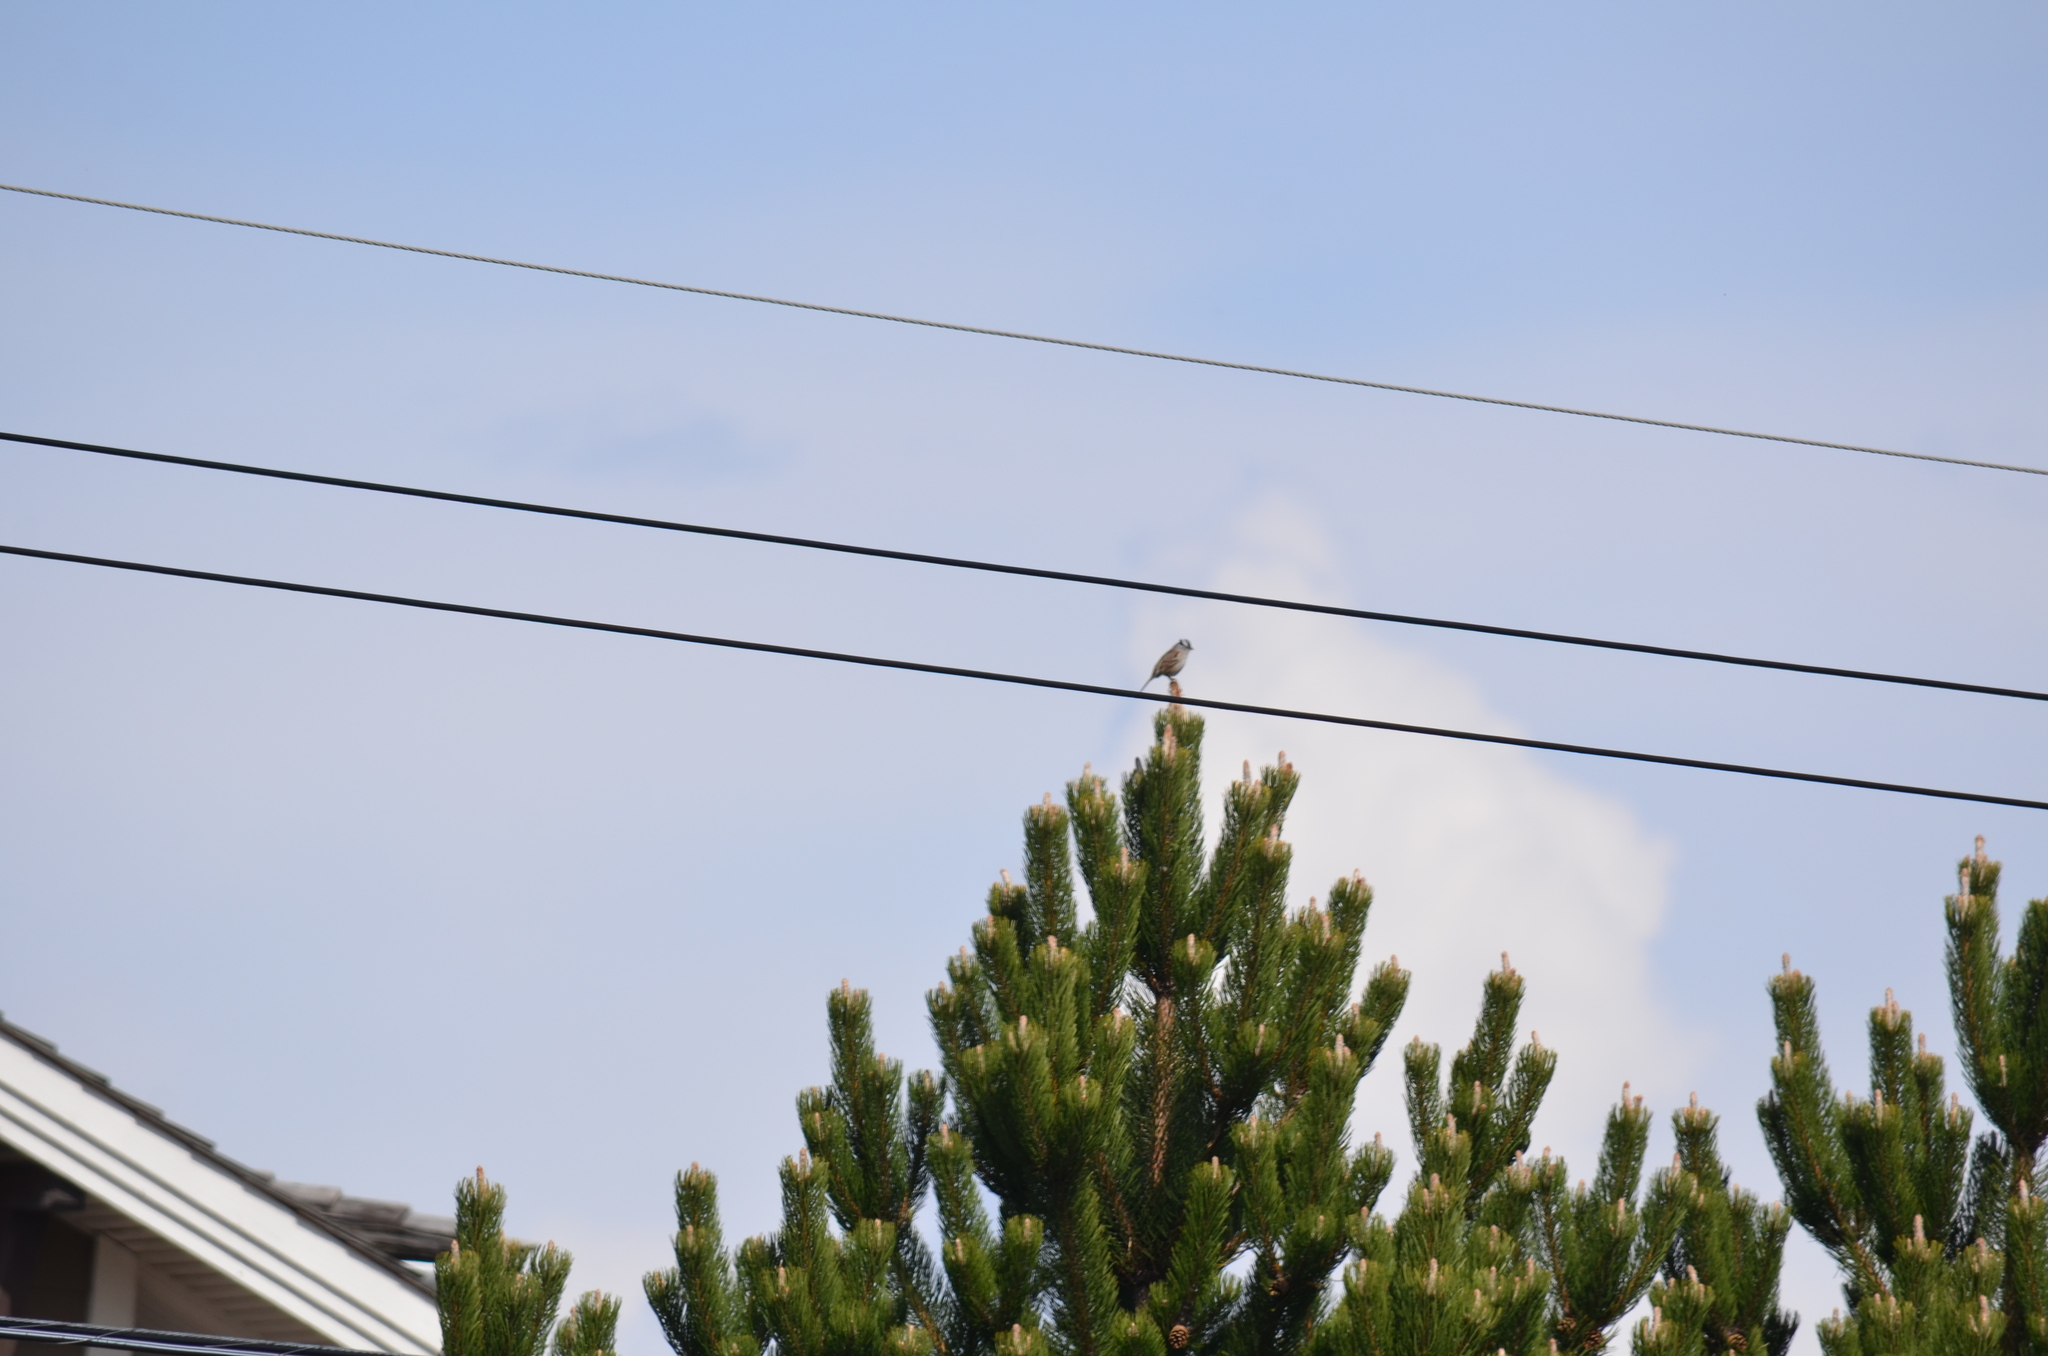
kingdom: Animalia
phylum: Chordata
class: Aves
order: Passeriformes
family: Passerellidae
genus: Zonotrichia
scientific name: Zonotrichia leucophrys
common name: White-crowned sparrow
